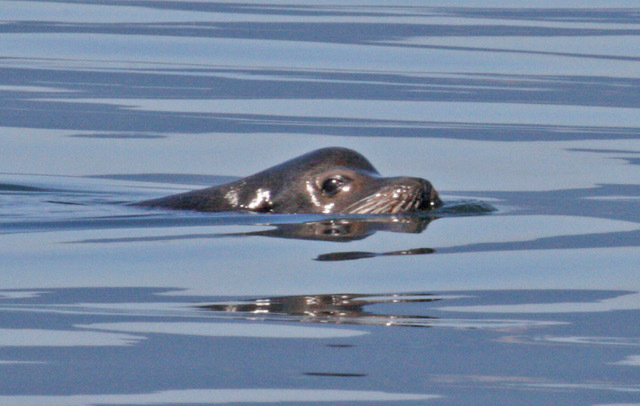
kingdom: Animalia
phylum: Chordata
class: Mammalia
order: Carnivora
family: Otariidae
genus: Zalophus
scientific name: Zalophus californianus
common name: California sea lion
